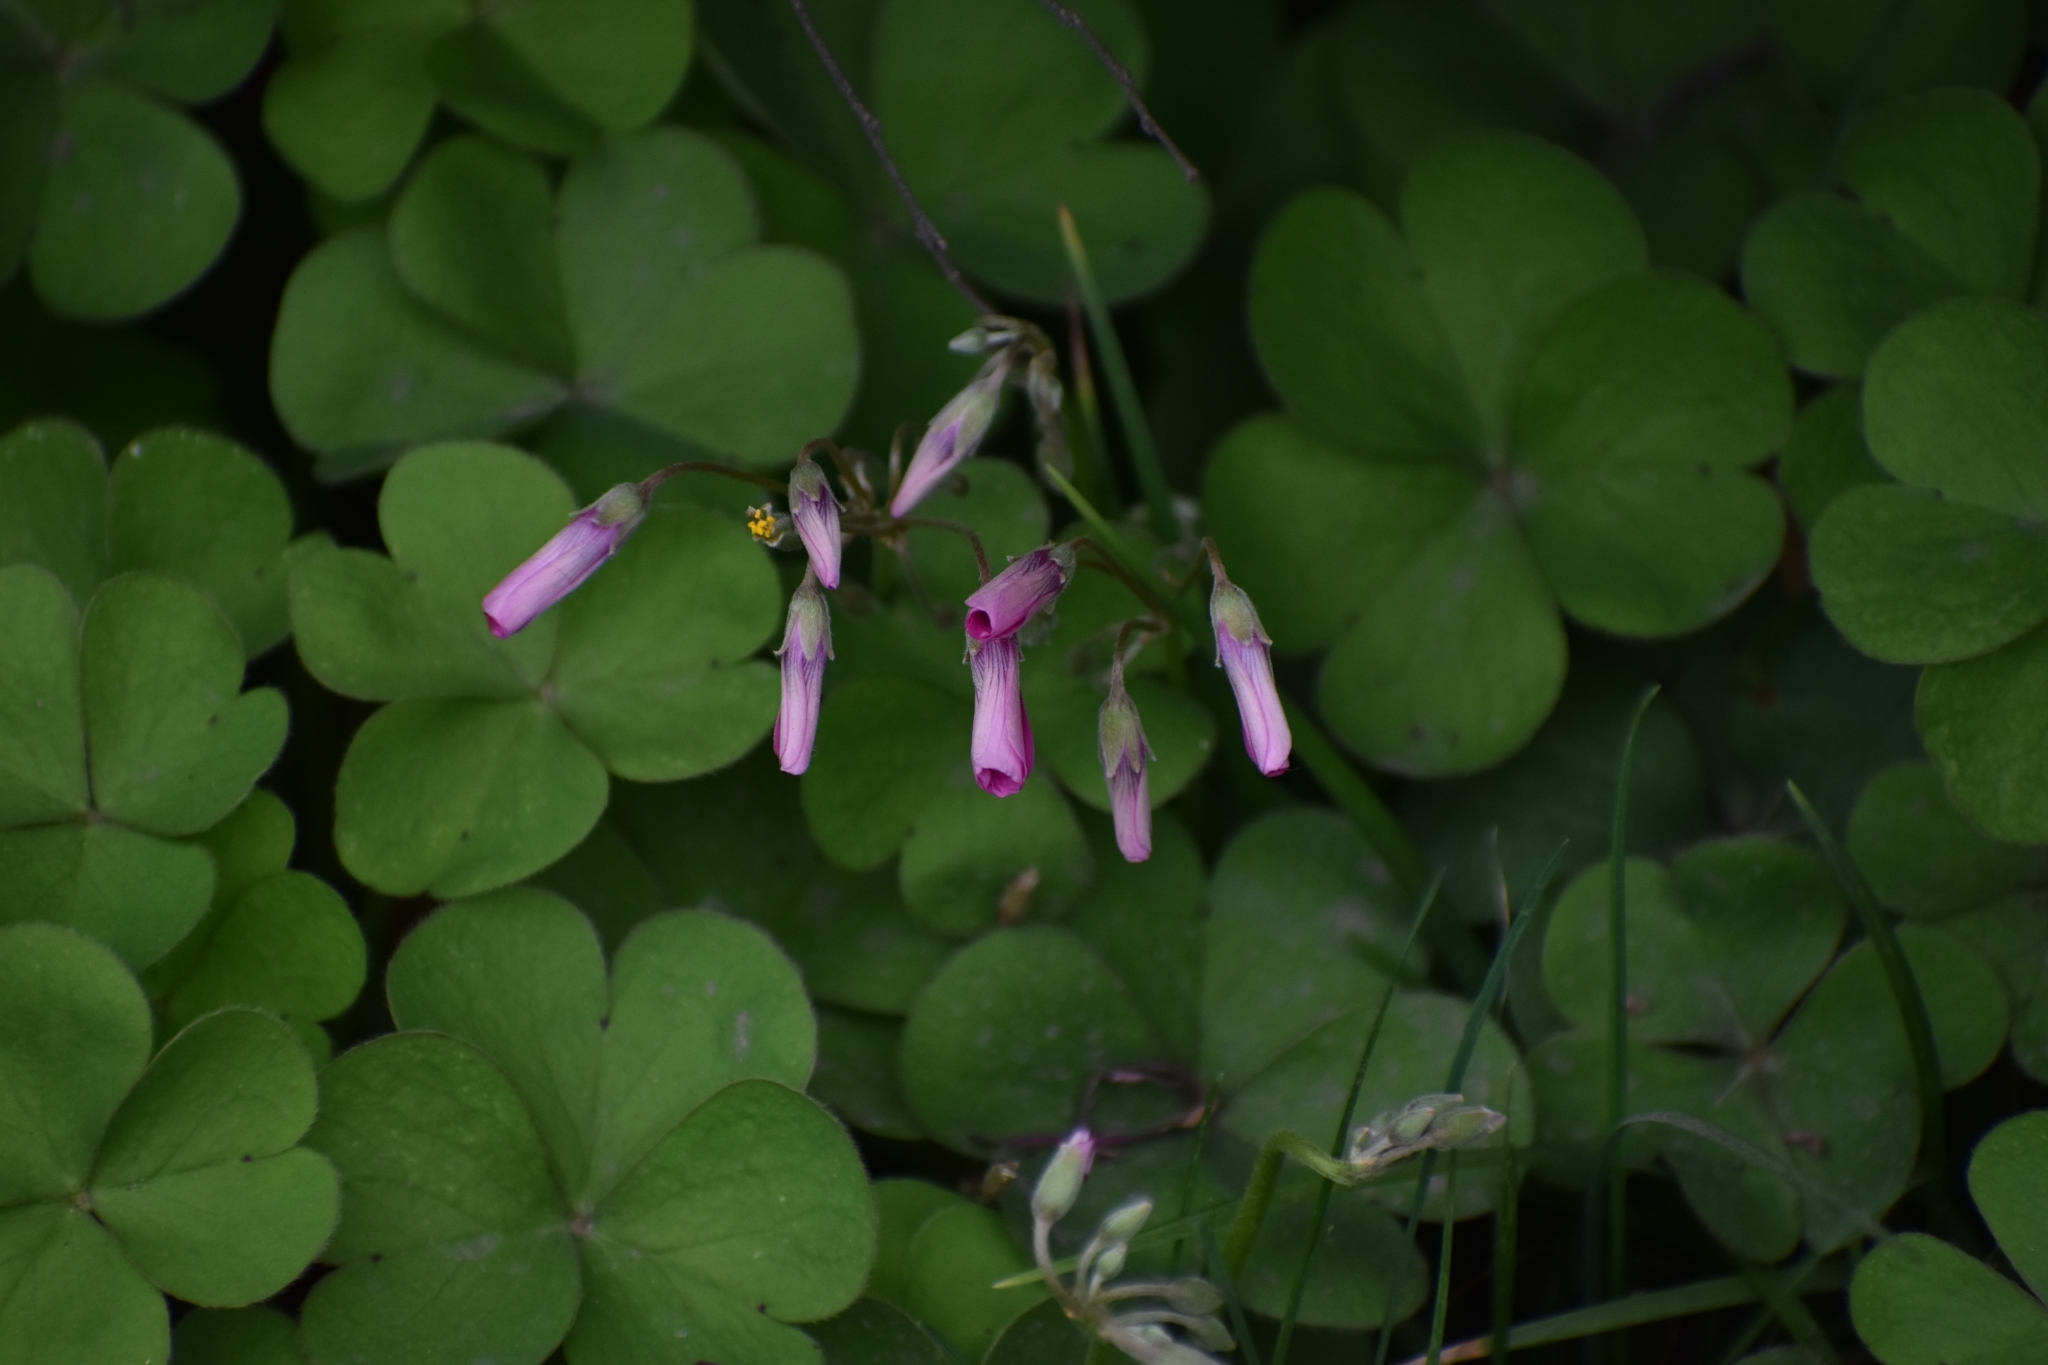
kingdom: Plantae
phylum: Tracheophyta
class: Magnoliopsida
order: Oxalidales
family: Oxalidaceae
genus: Oxalis
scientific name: Oxalis articulata
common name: Pink-sorrel
